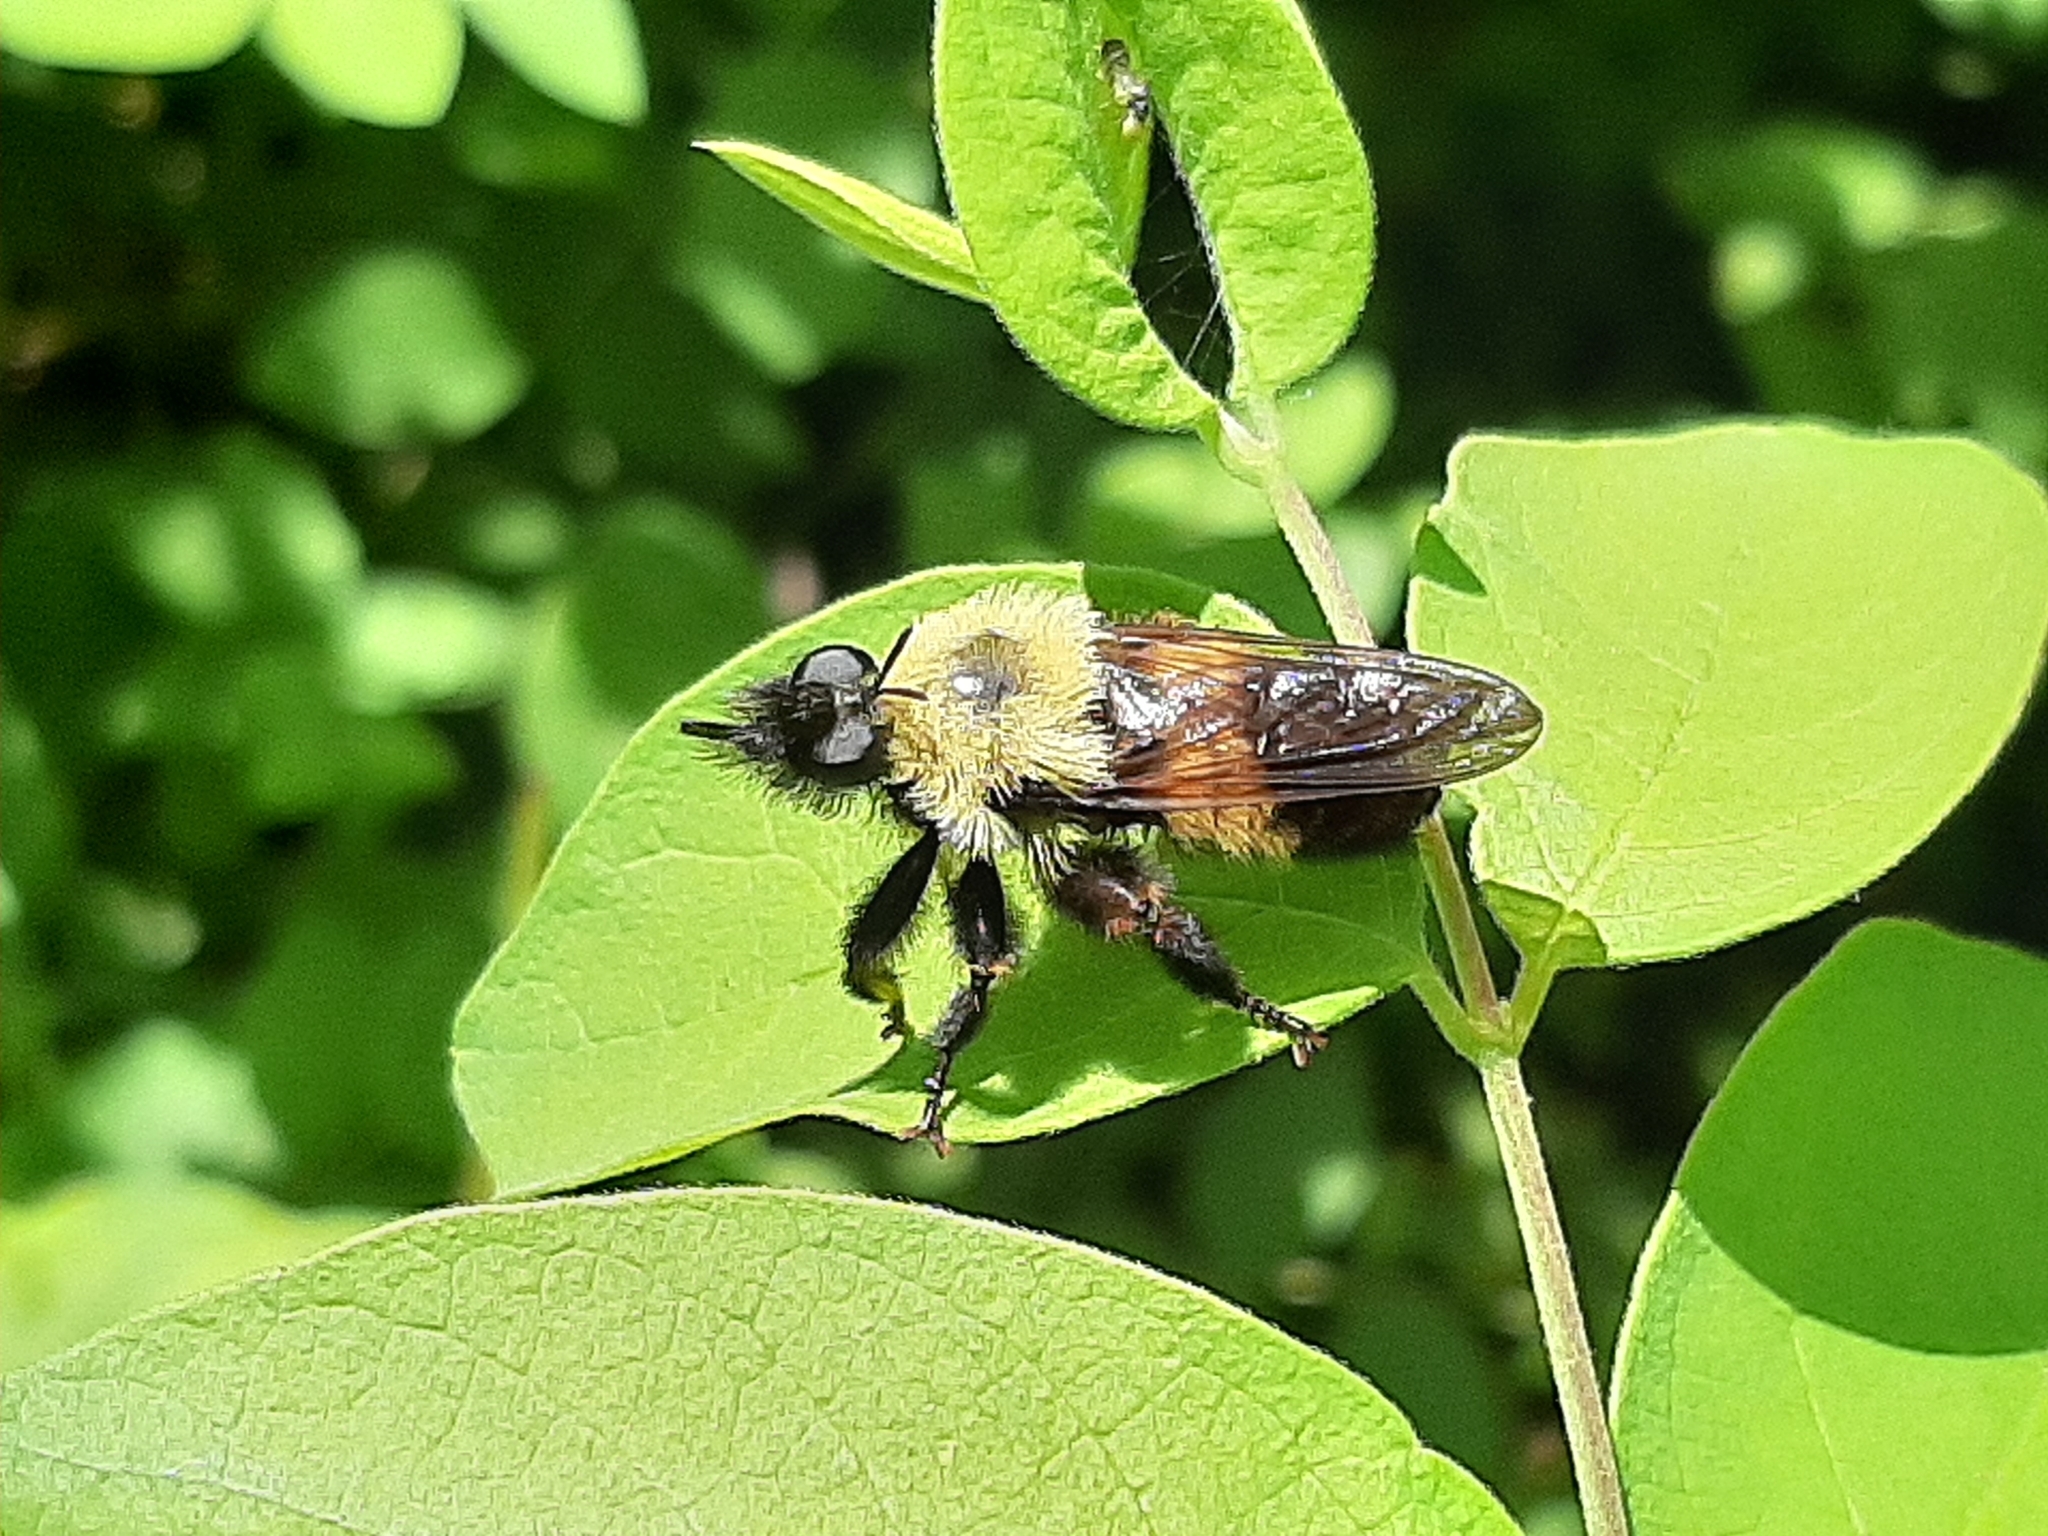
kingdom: Animalia
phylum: Arthropoda
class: Insecta
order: Diptera
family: Asilidae
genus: Laphria
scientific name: Laphria thoracica
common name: Bumble bee mimic robber fly
